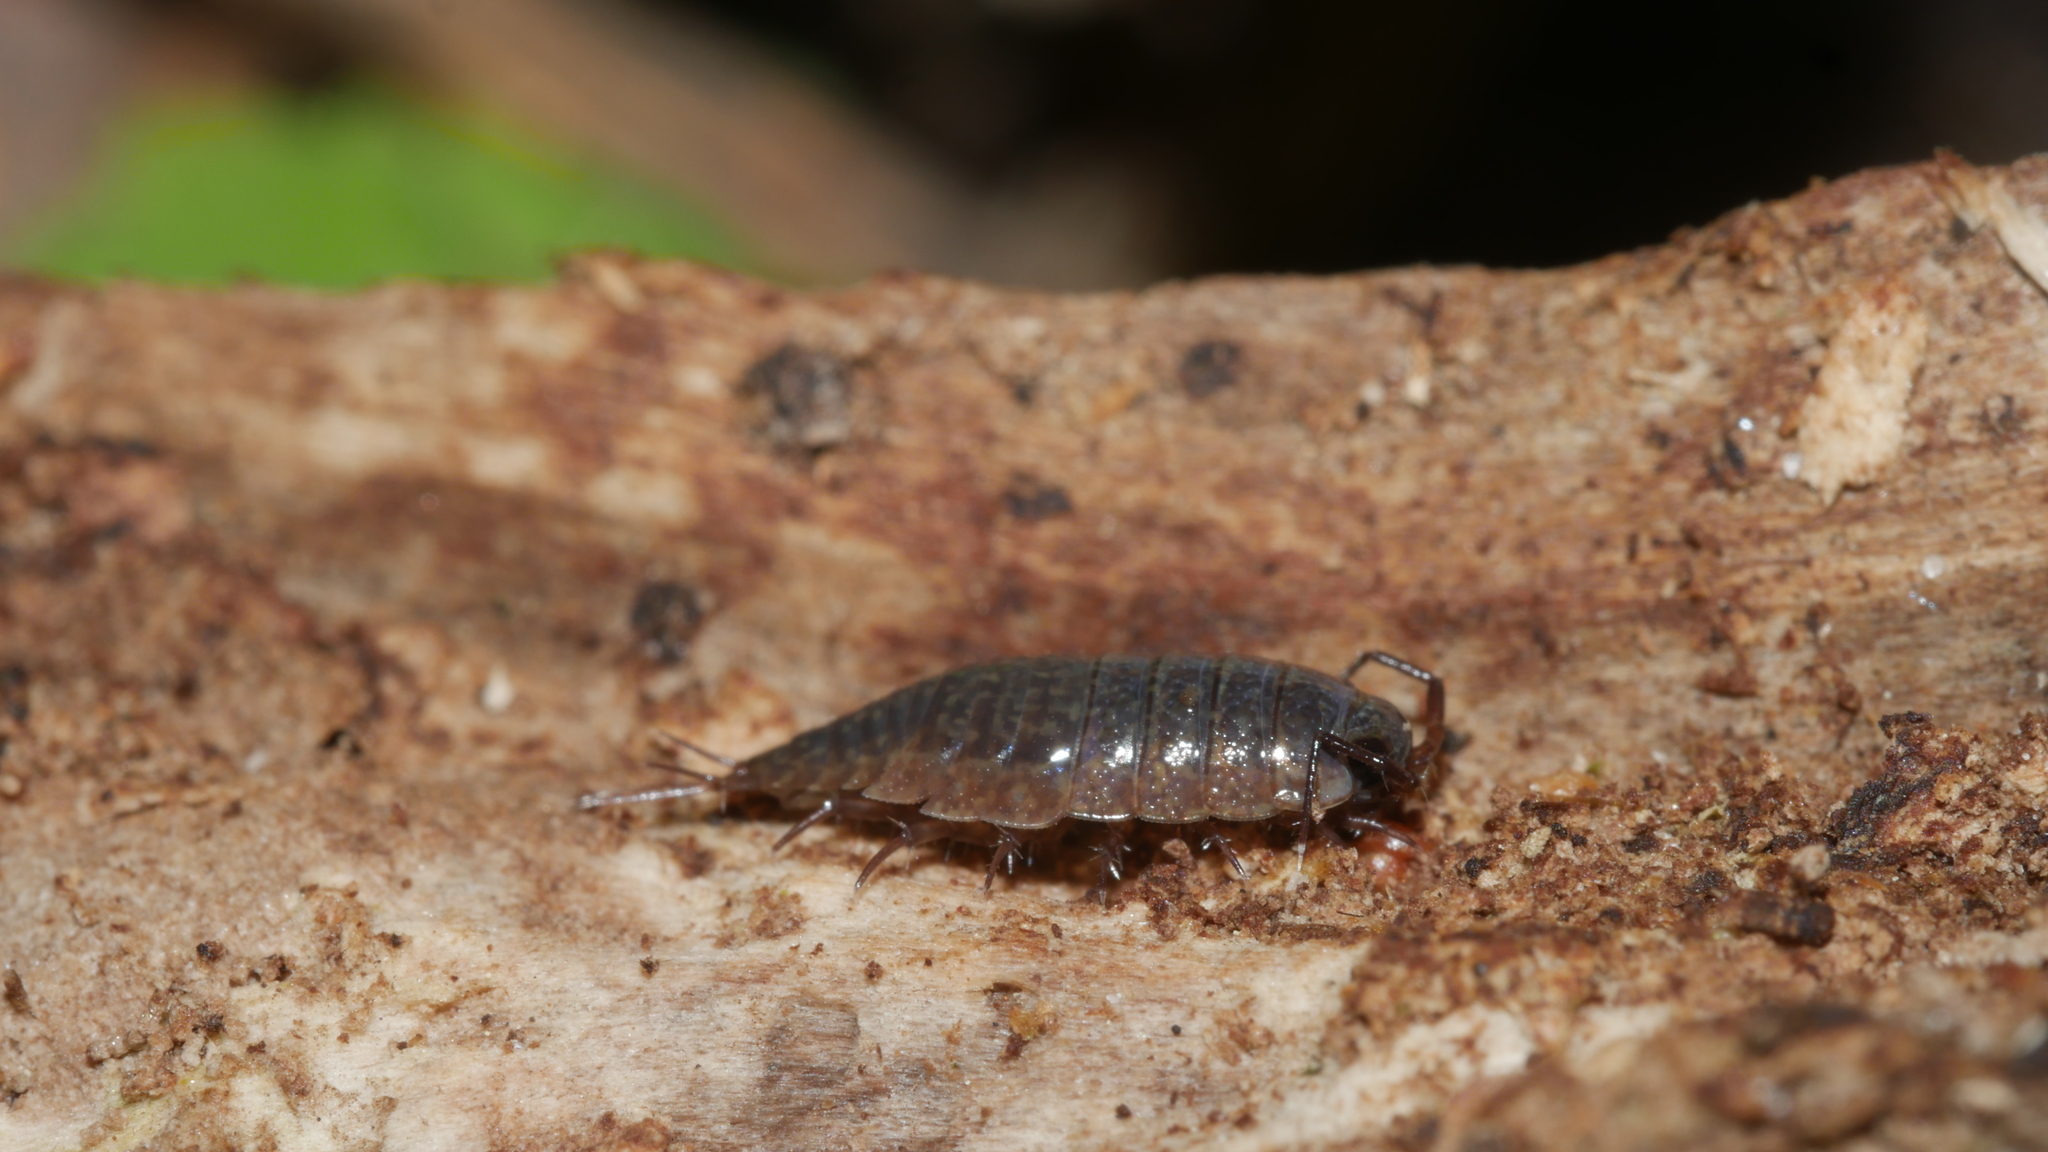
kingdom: Animalia
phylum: Arthropoda
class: Malacostraca
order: Isopoda
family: Ligiidae
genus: Ligidium
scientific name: Ligidium elrodii
